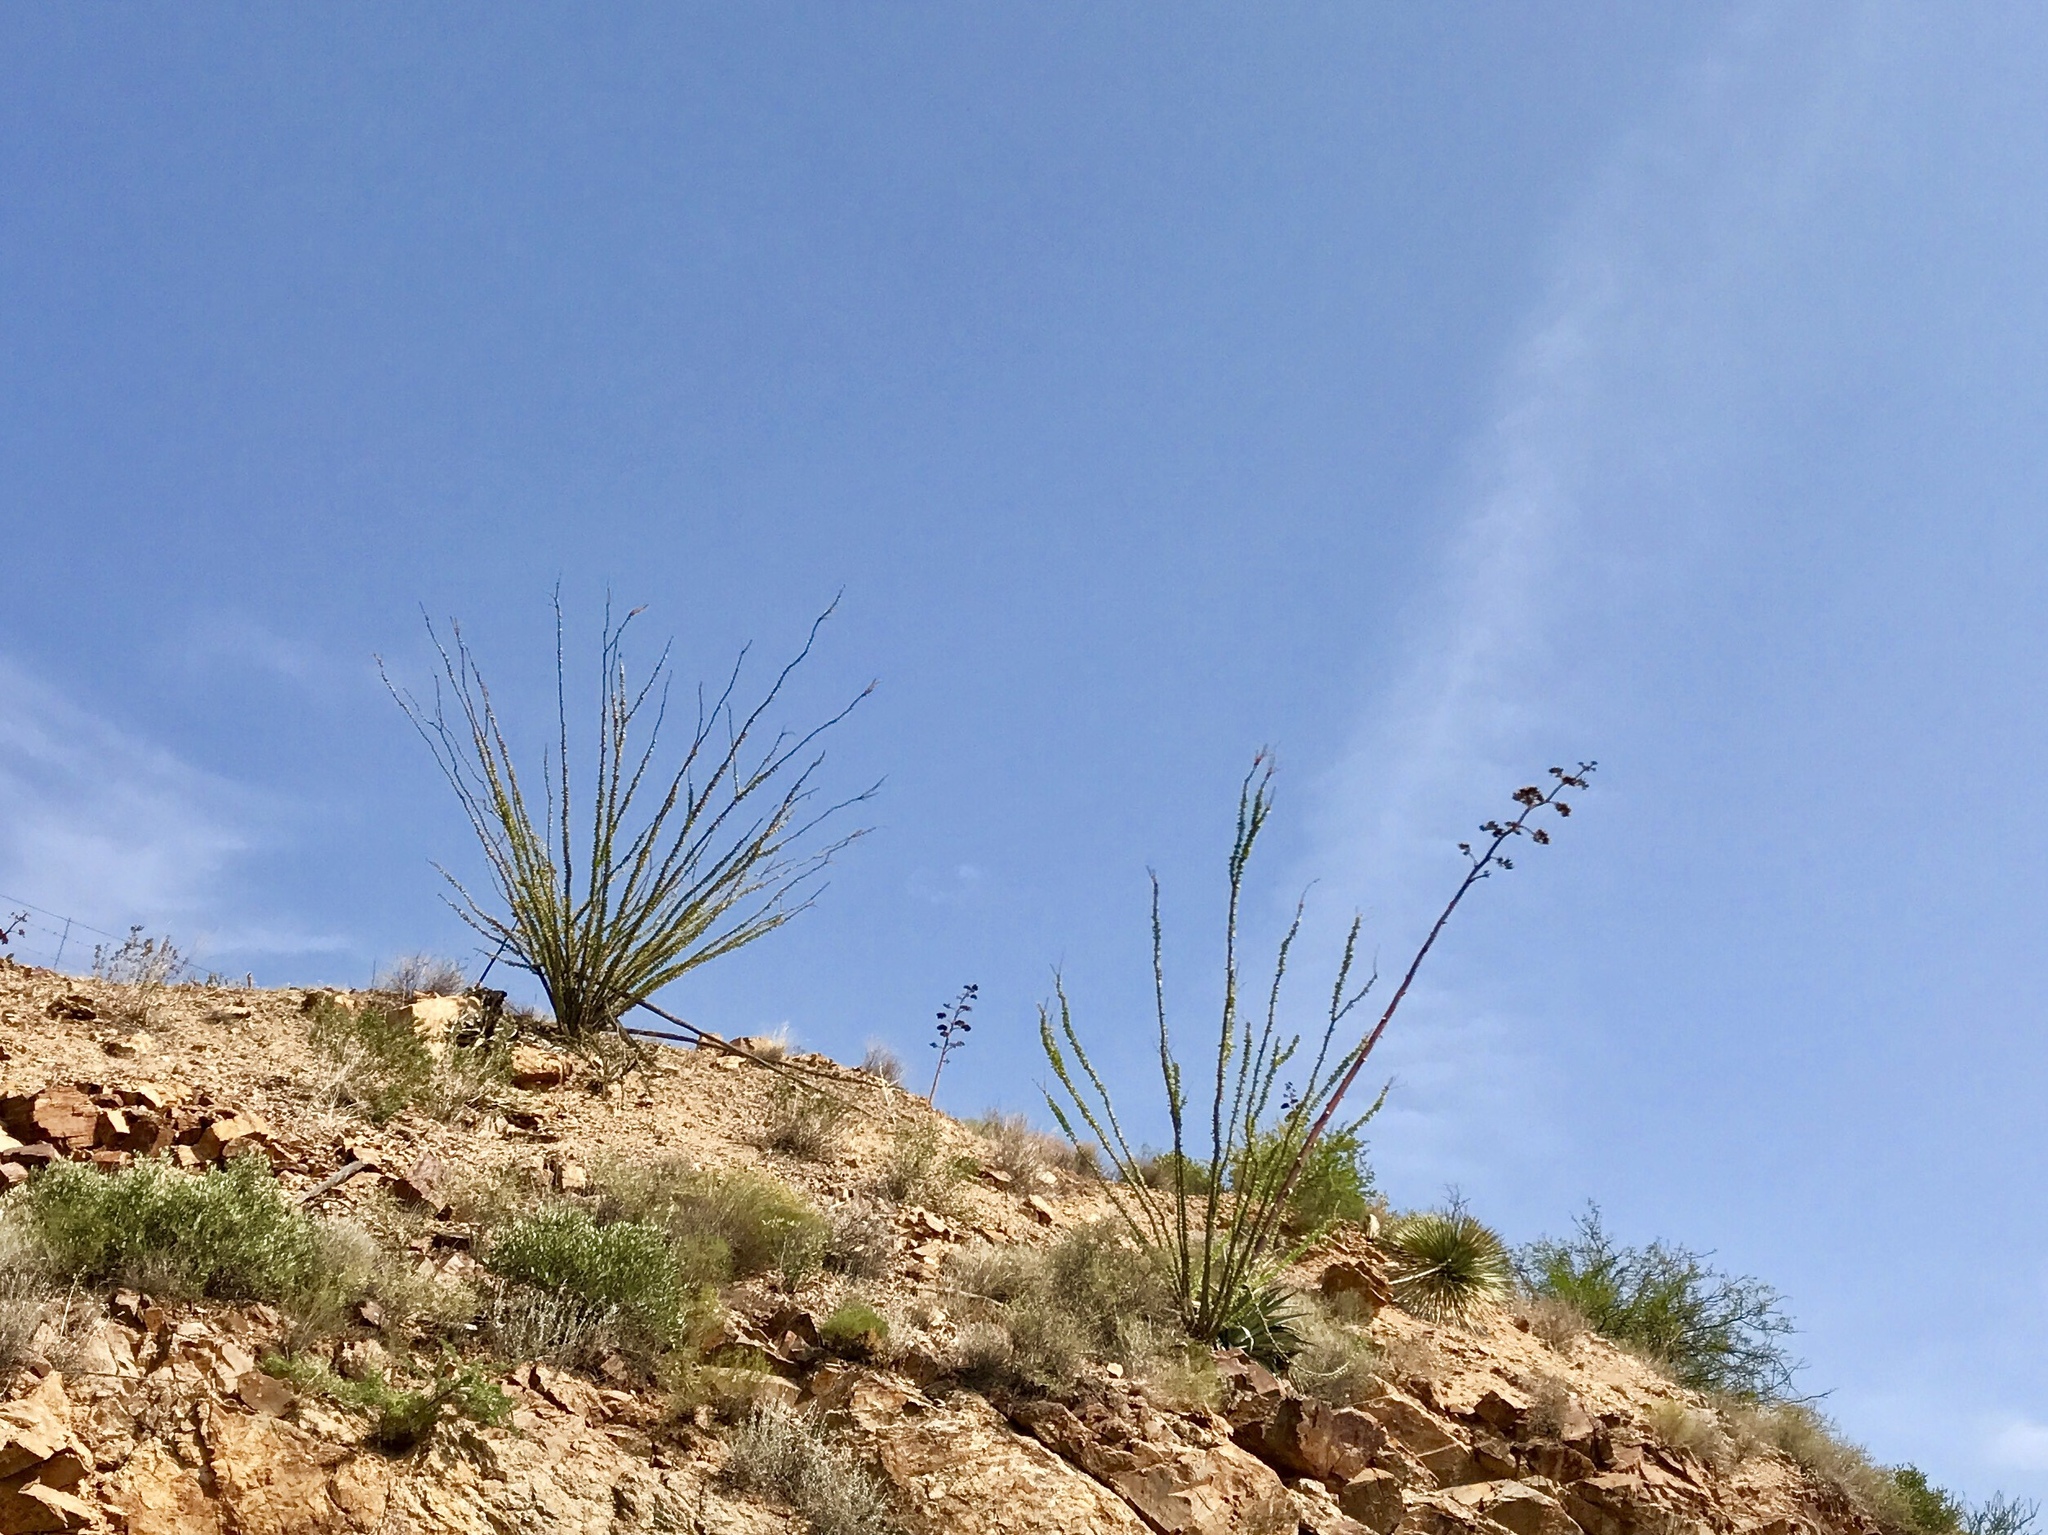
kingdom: Plantae
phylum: Tracheophyta
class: Magnoliopsida
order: Ericales
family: Fouquieriaceae
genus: Fouquieria
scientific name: Fouquieria splendens
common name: Vine-cactus
